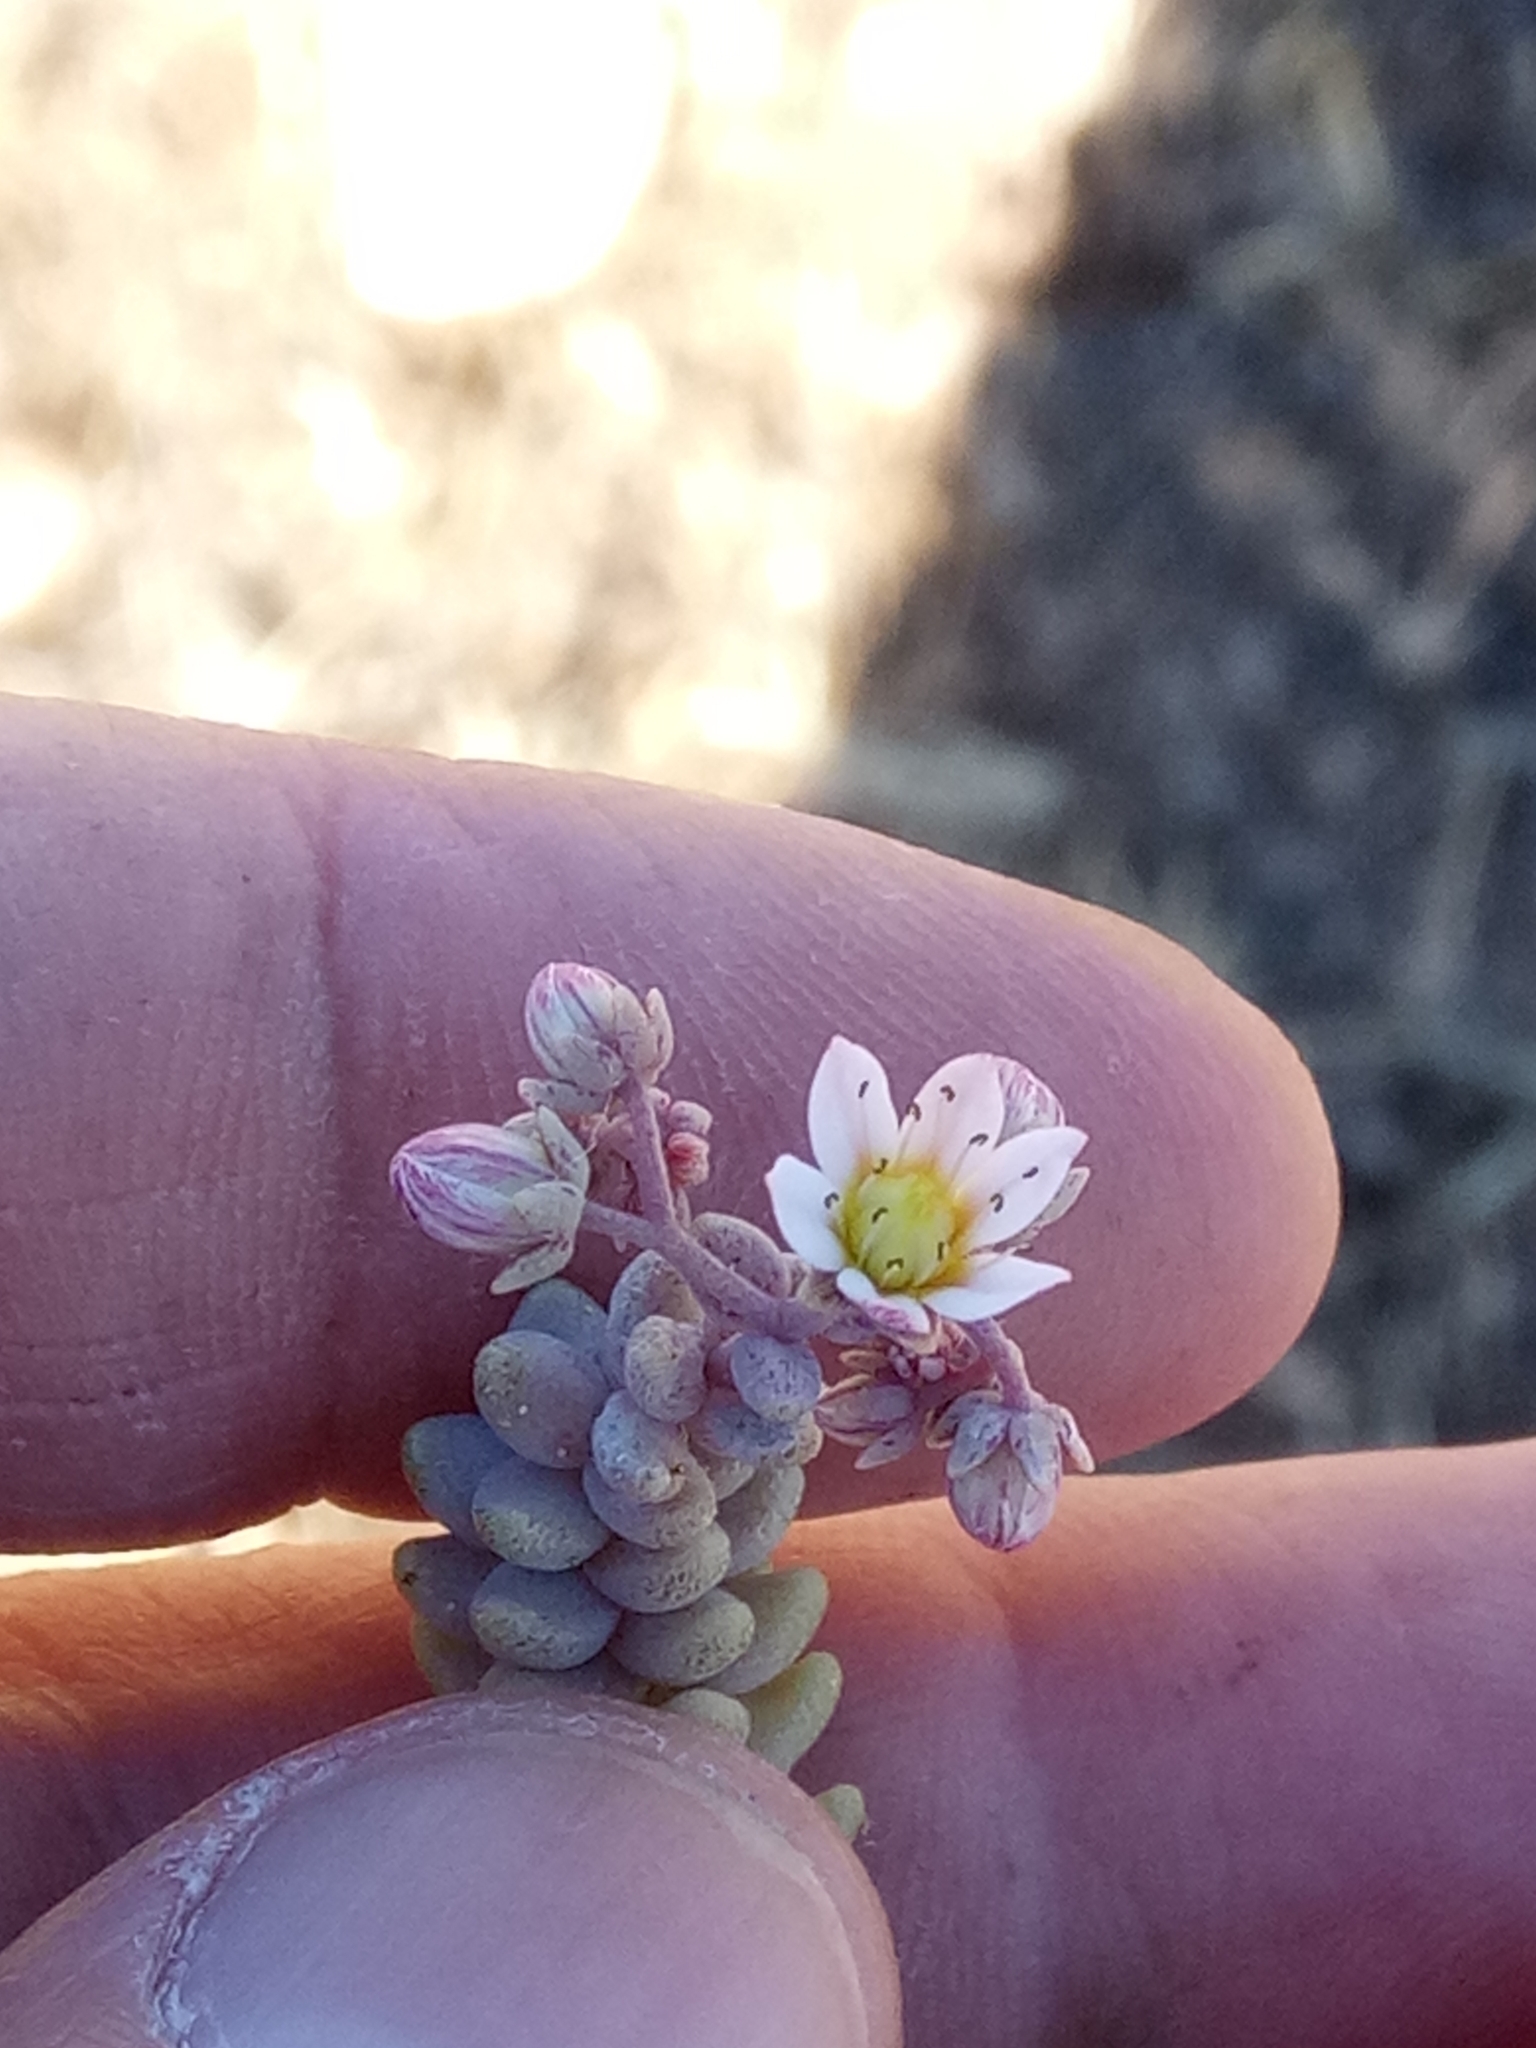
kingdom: Plantae
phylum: Tracheophyta
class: Magnoliopsida
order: Saxifragales
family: Crassulaceae
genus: Sedum
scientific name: Sedum dasyphyllum
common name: Thick-leaf stonecrop
